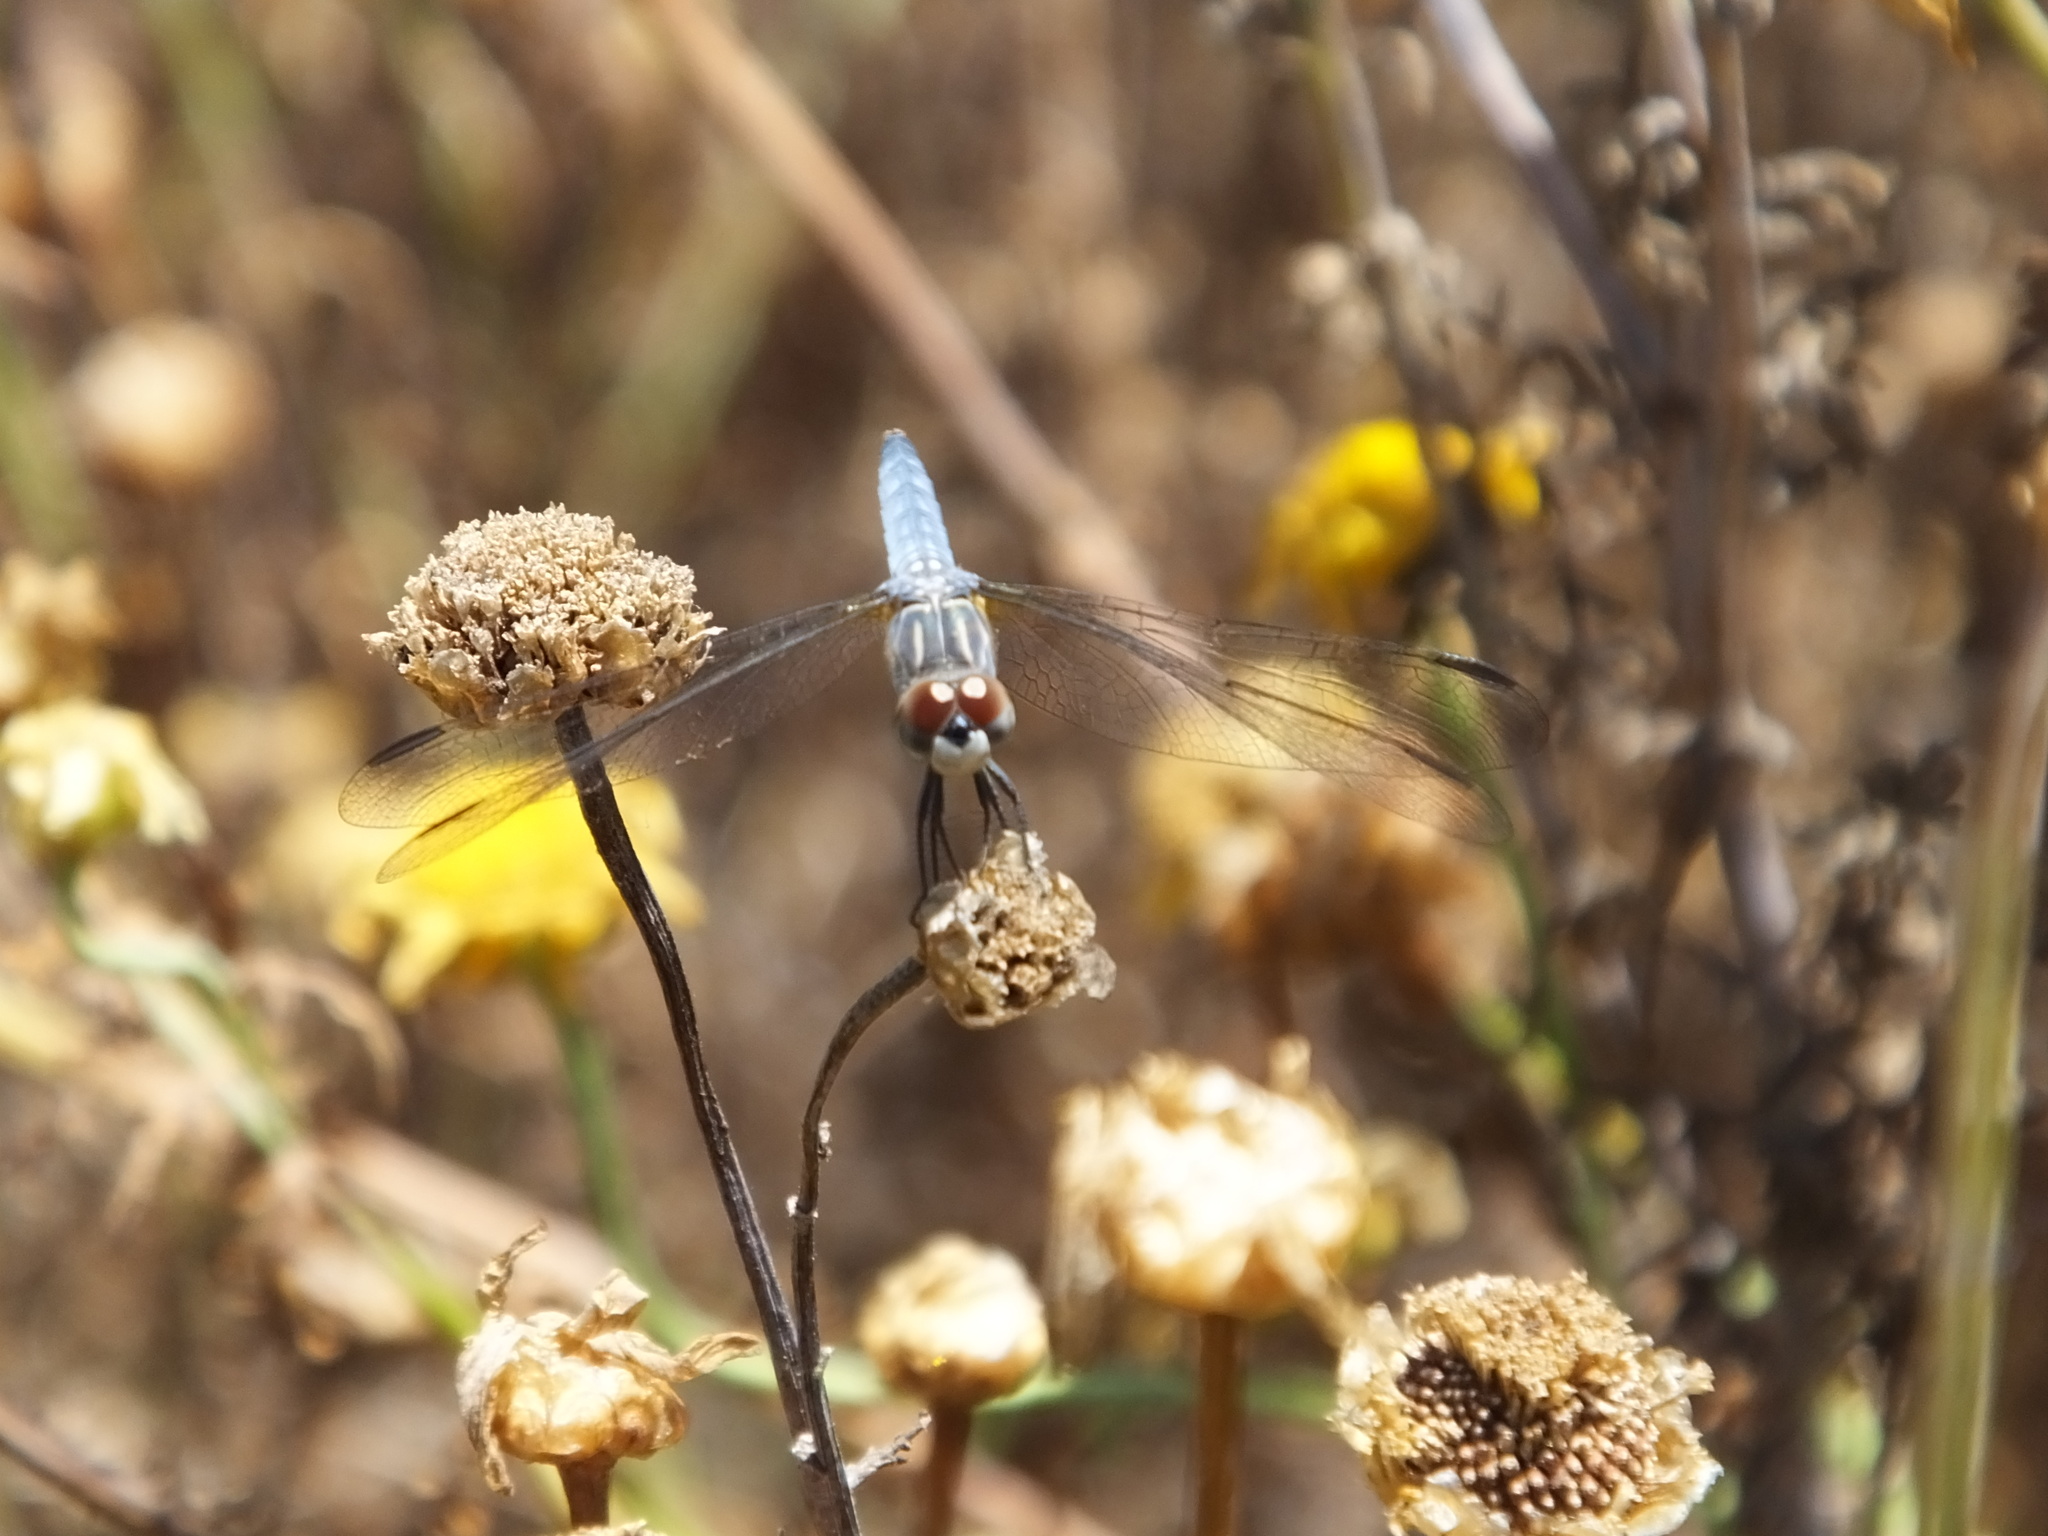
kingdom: Animalia
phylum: Arthropoda
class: Insecta
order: Odonata
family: Libellulidae
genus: Pachydiplax
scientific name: Pachydiplax longipennis
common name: Blue dasher
